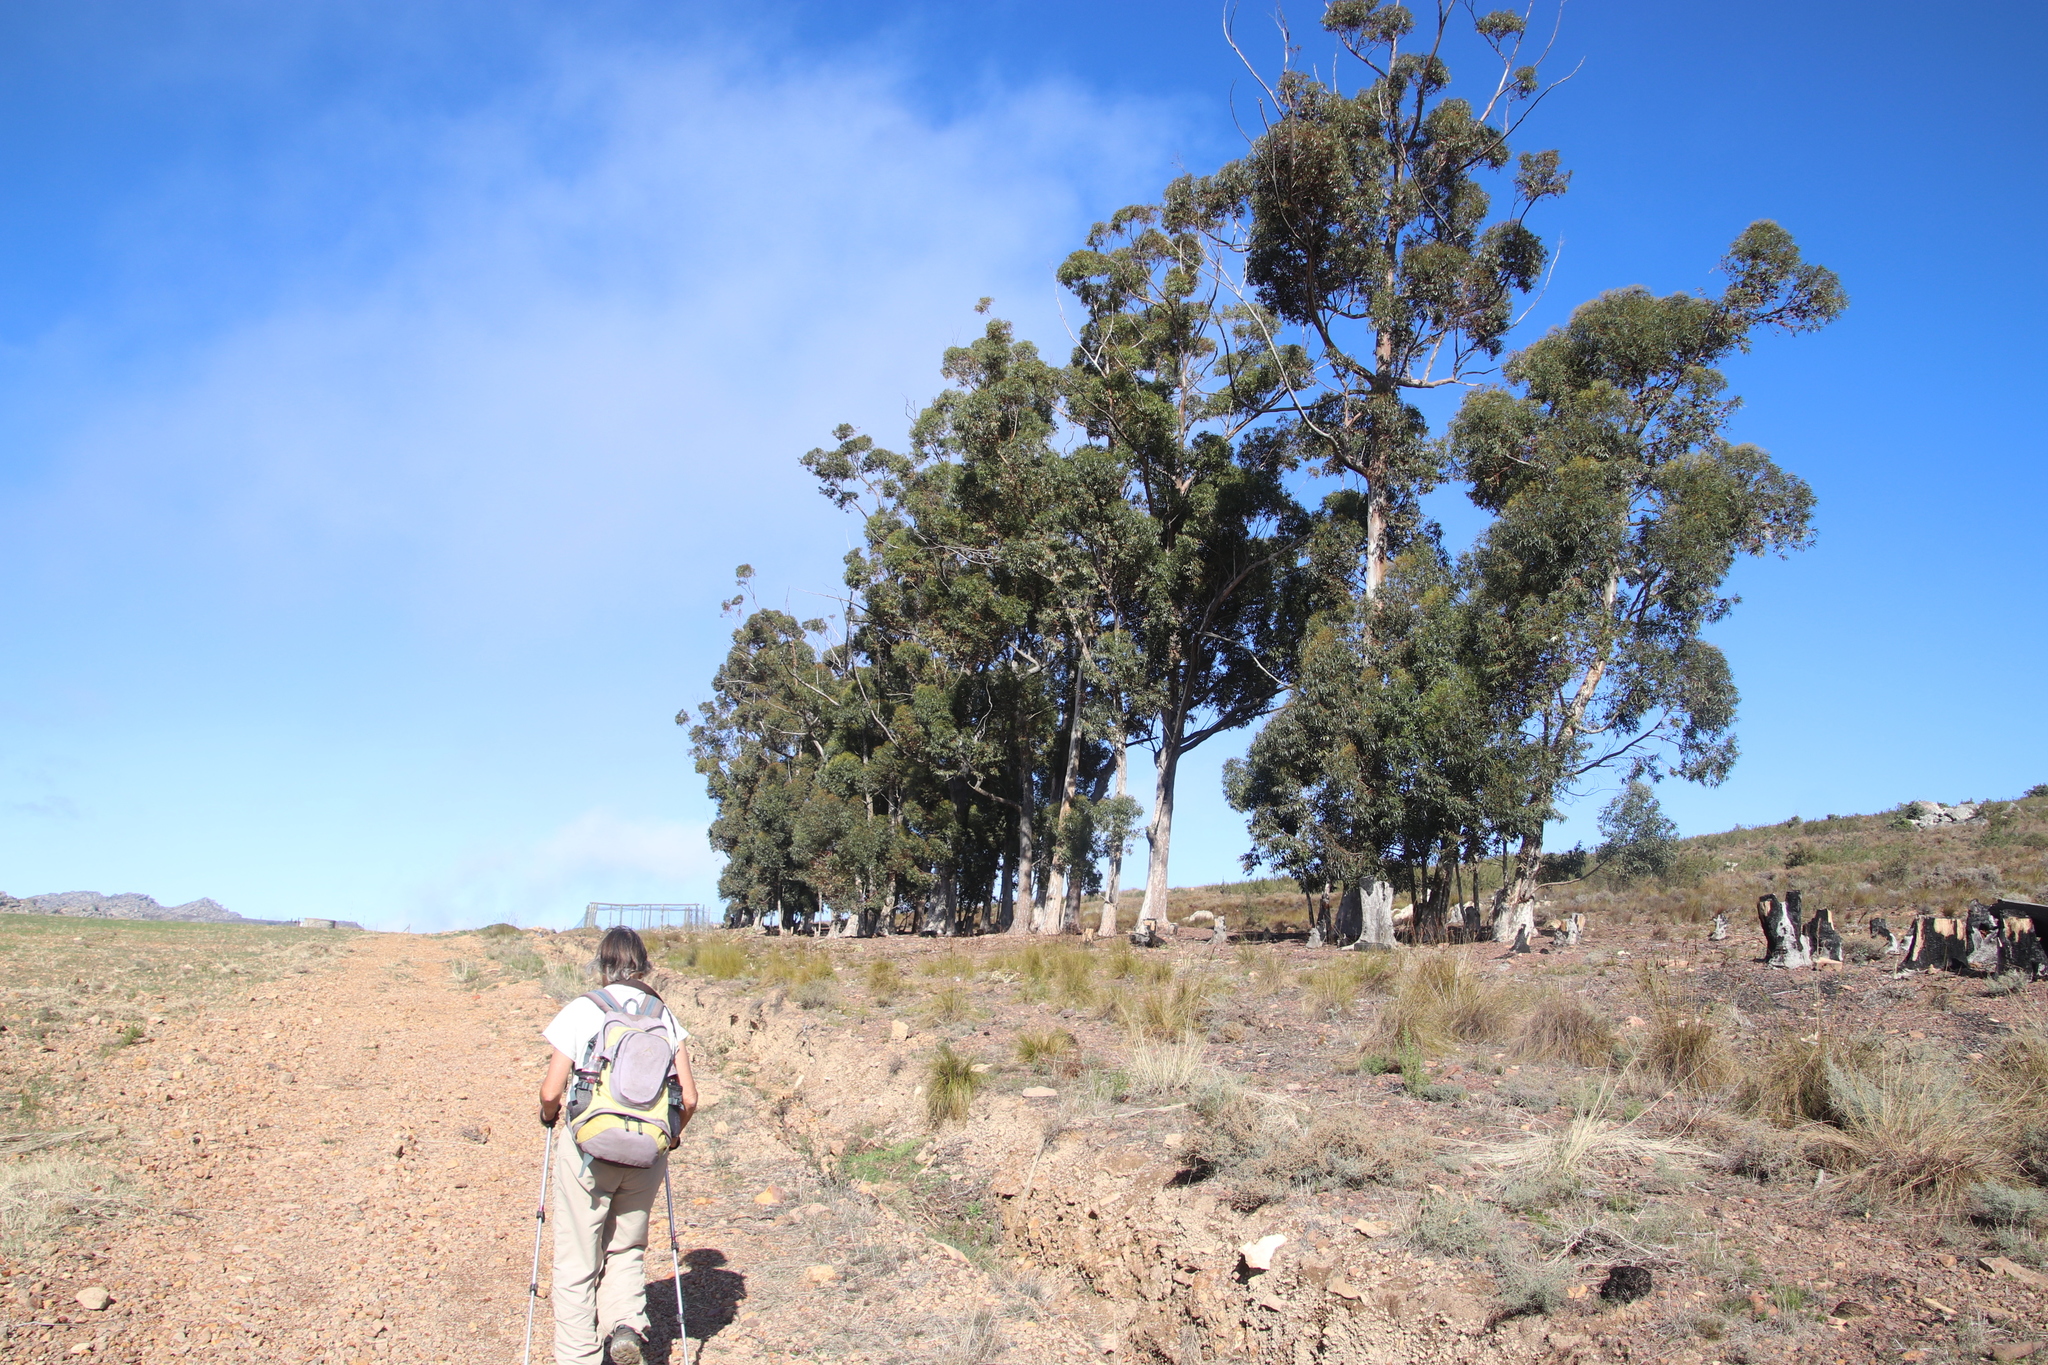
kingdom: Plantae
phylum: Tracheophyta
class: Magnoliopsida
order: Myrtales
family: Myrtaceae
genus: Eucalyptus
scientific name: Eucalyptus cladocalyx
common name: Sugargum
